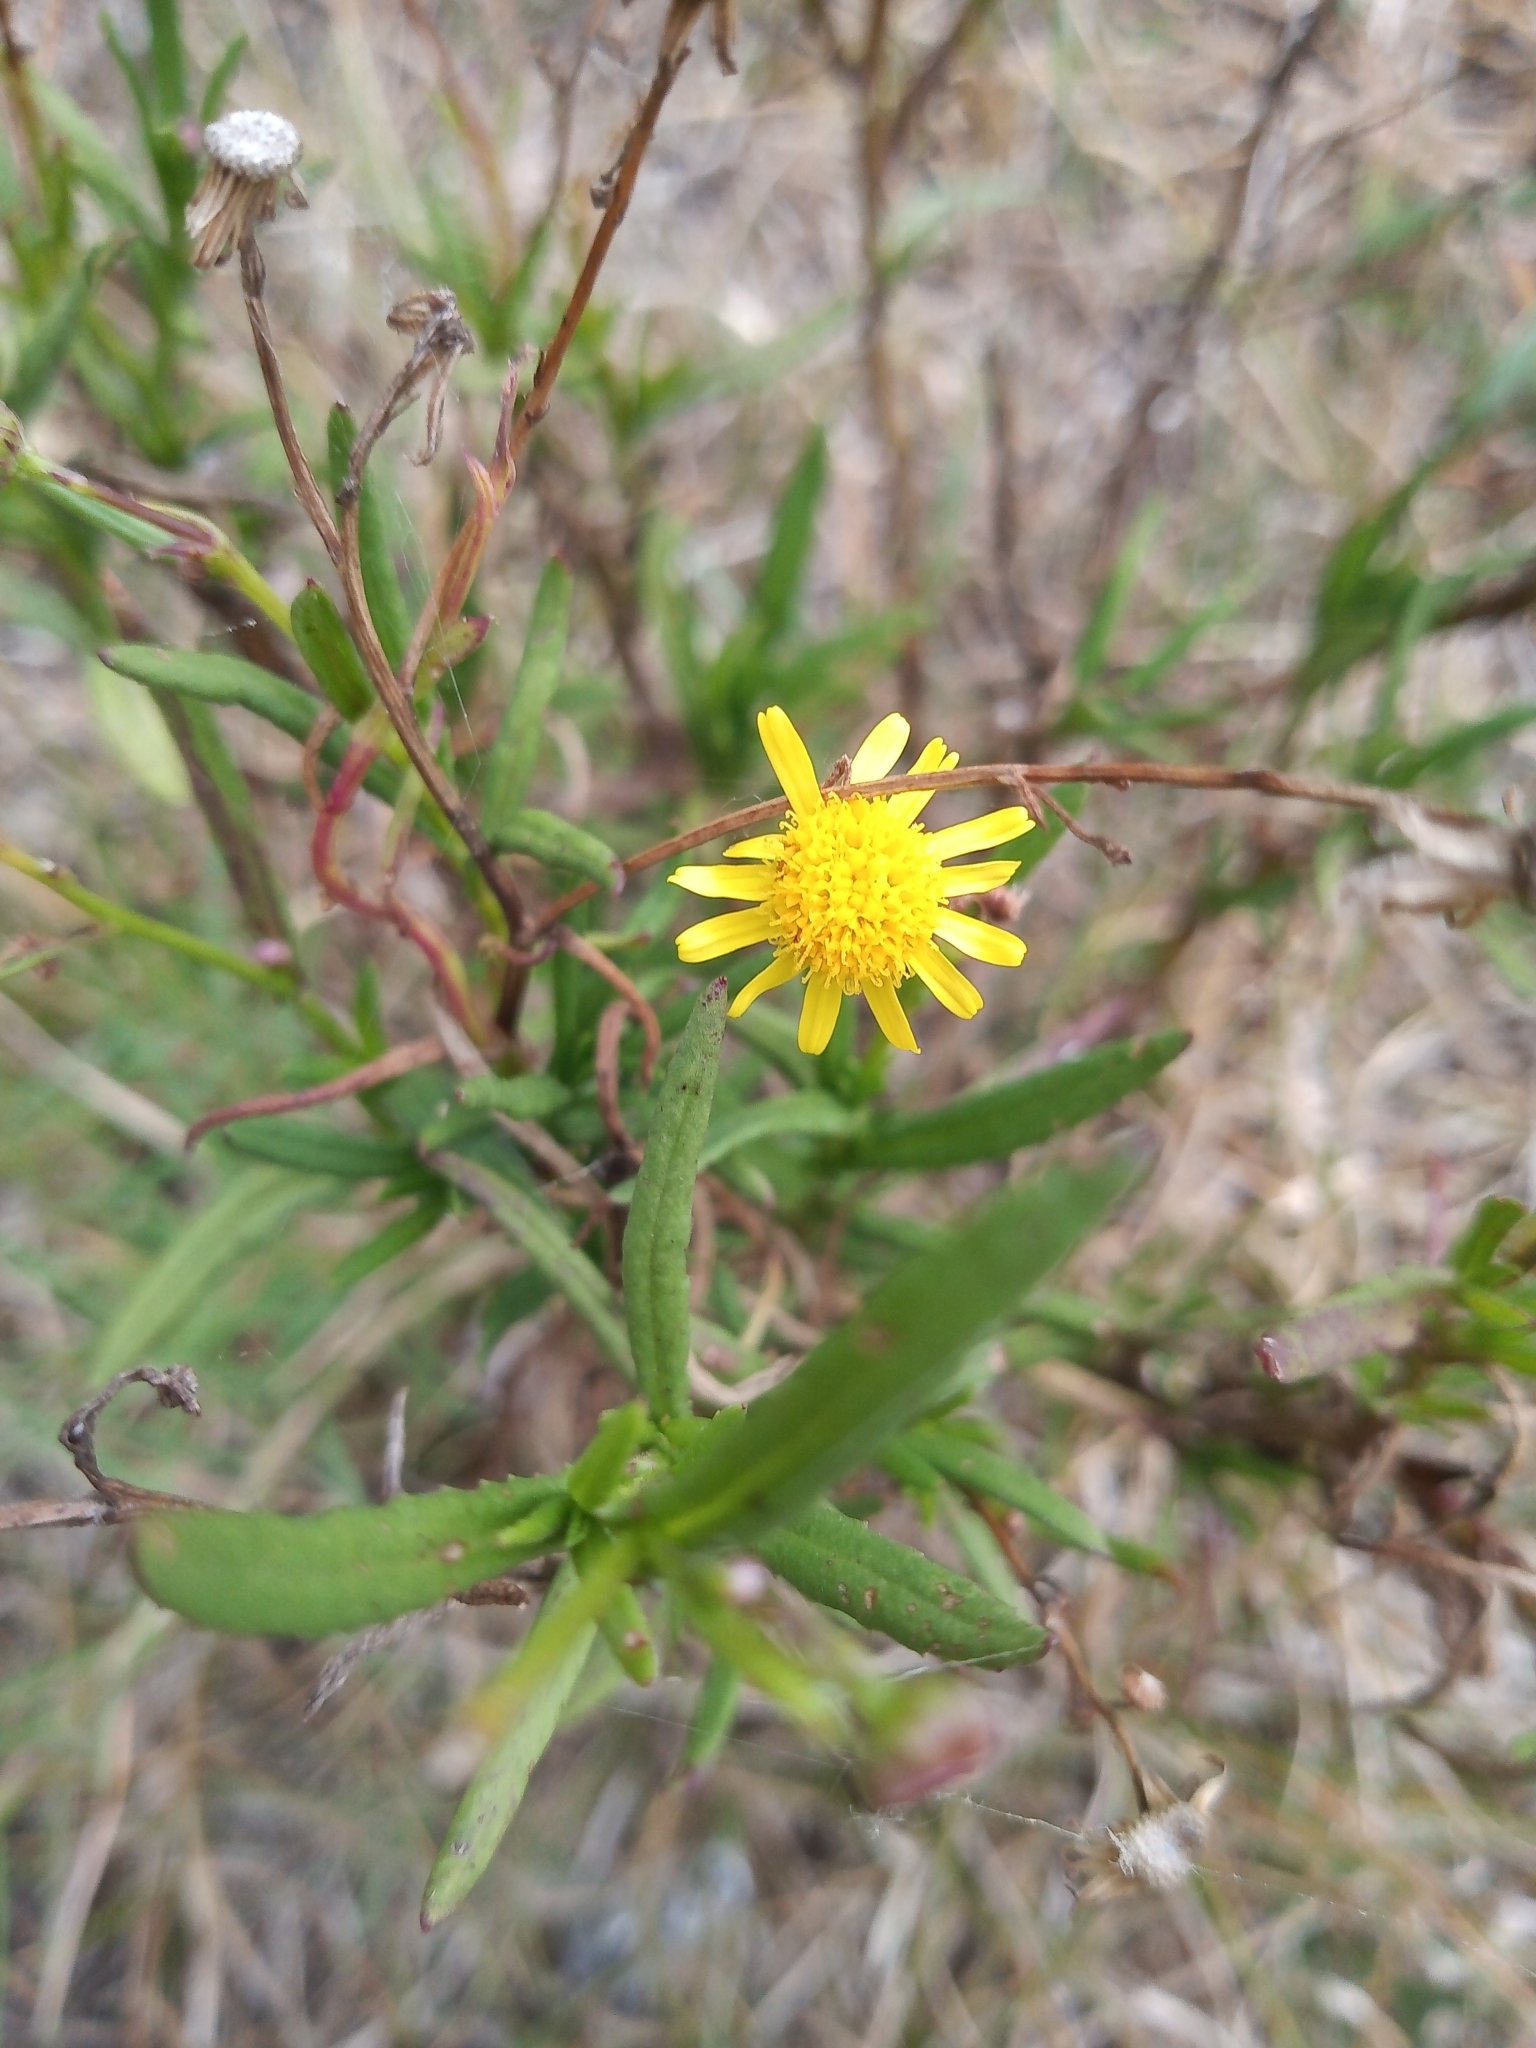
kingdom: Plantae
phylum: Tracheophyta
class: Magnoliopsida
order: Asterales
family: Asteraceae
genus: Senecio
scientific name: Senecio madagascariensis
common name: Madagascar ragwort
